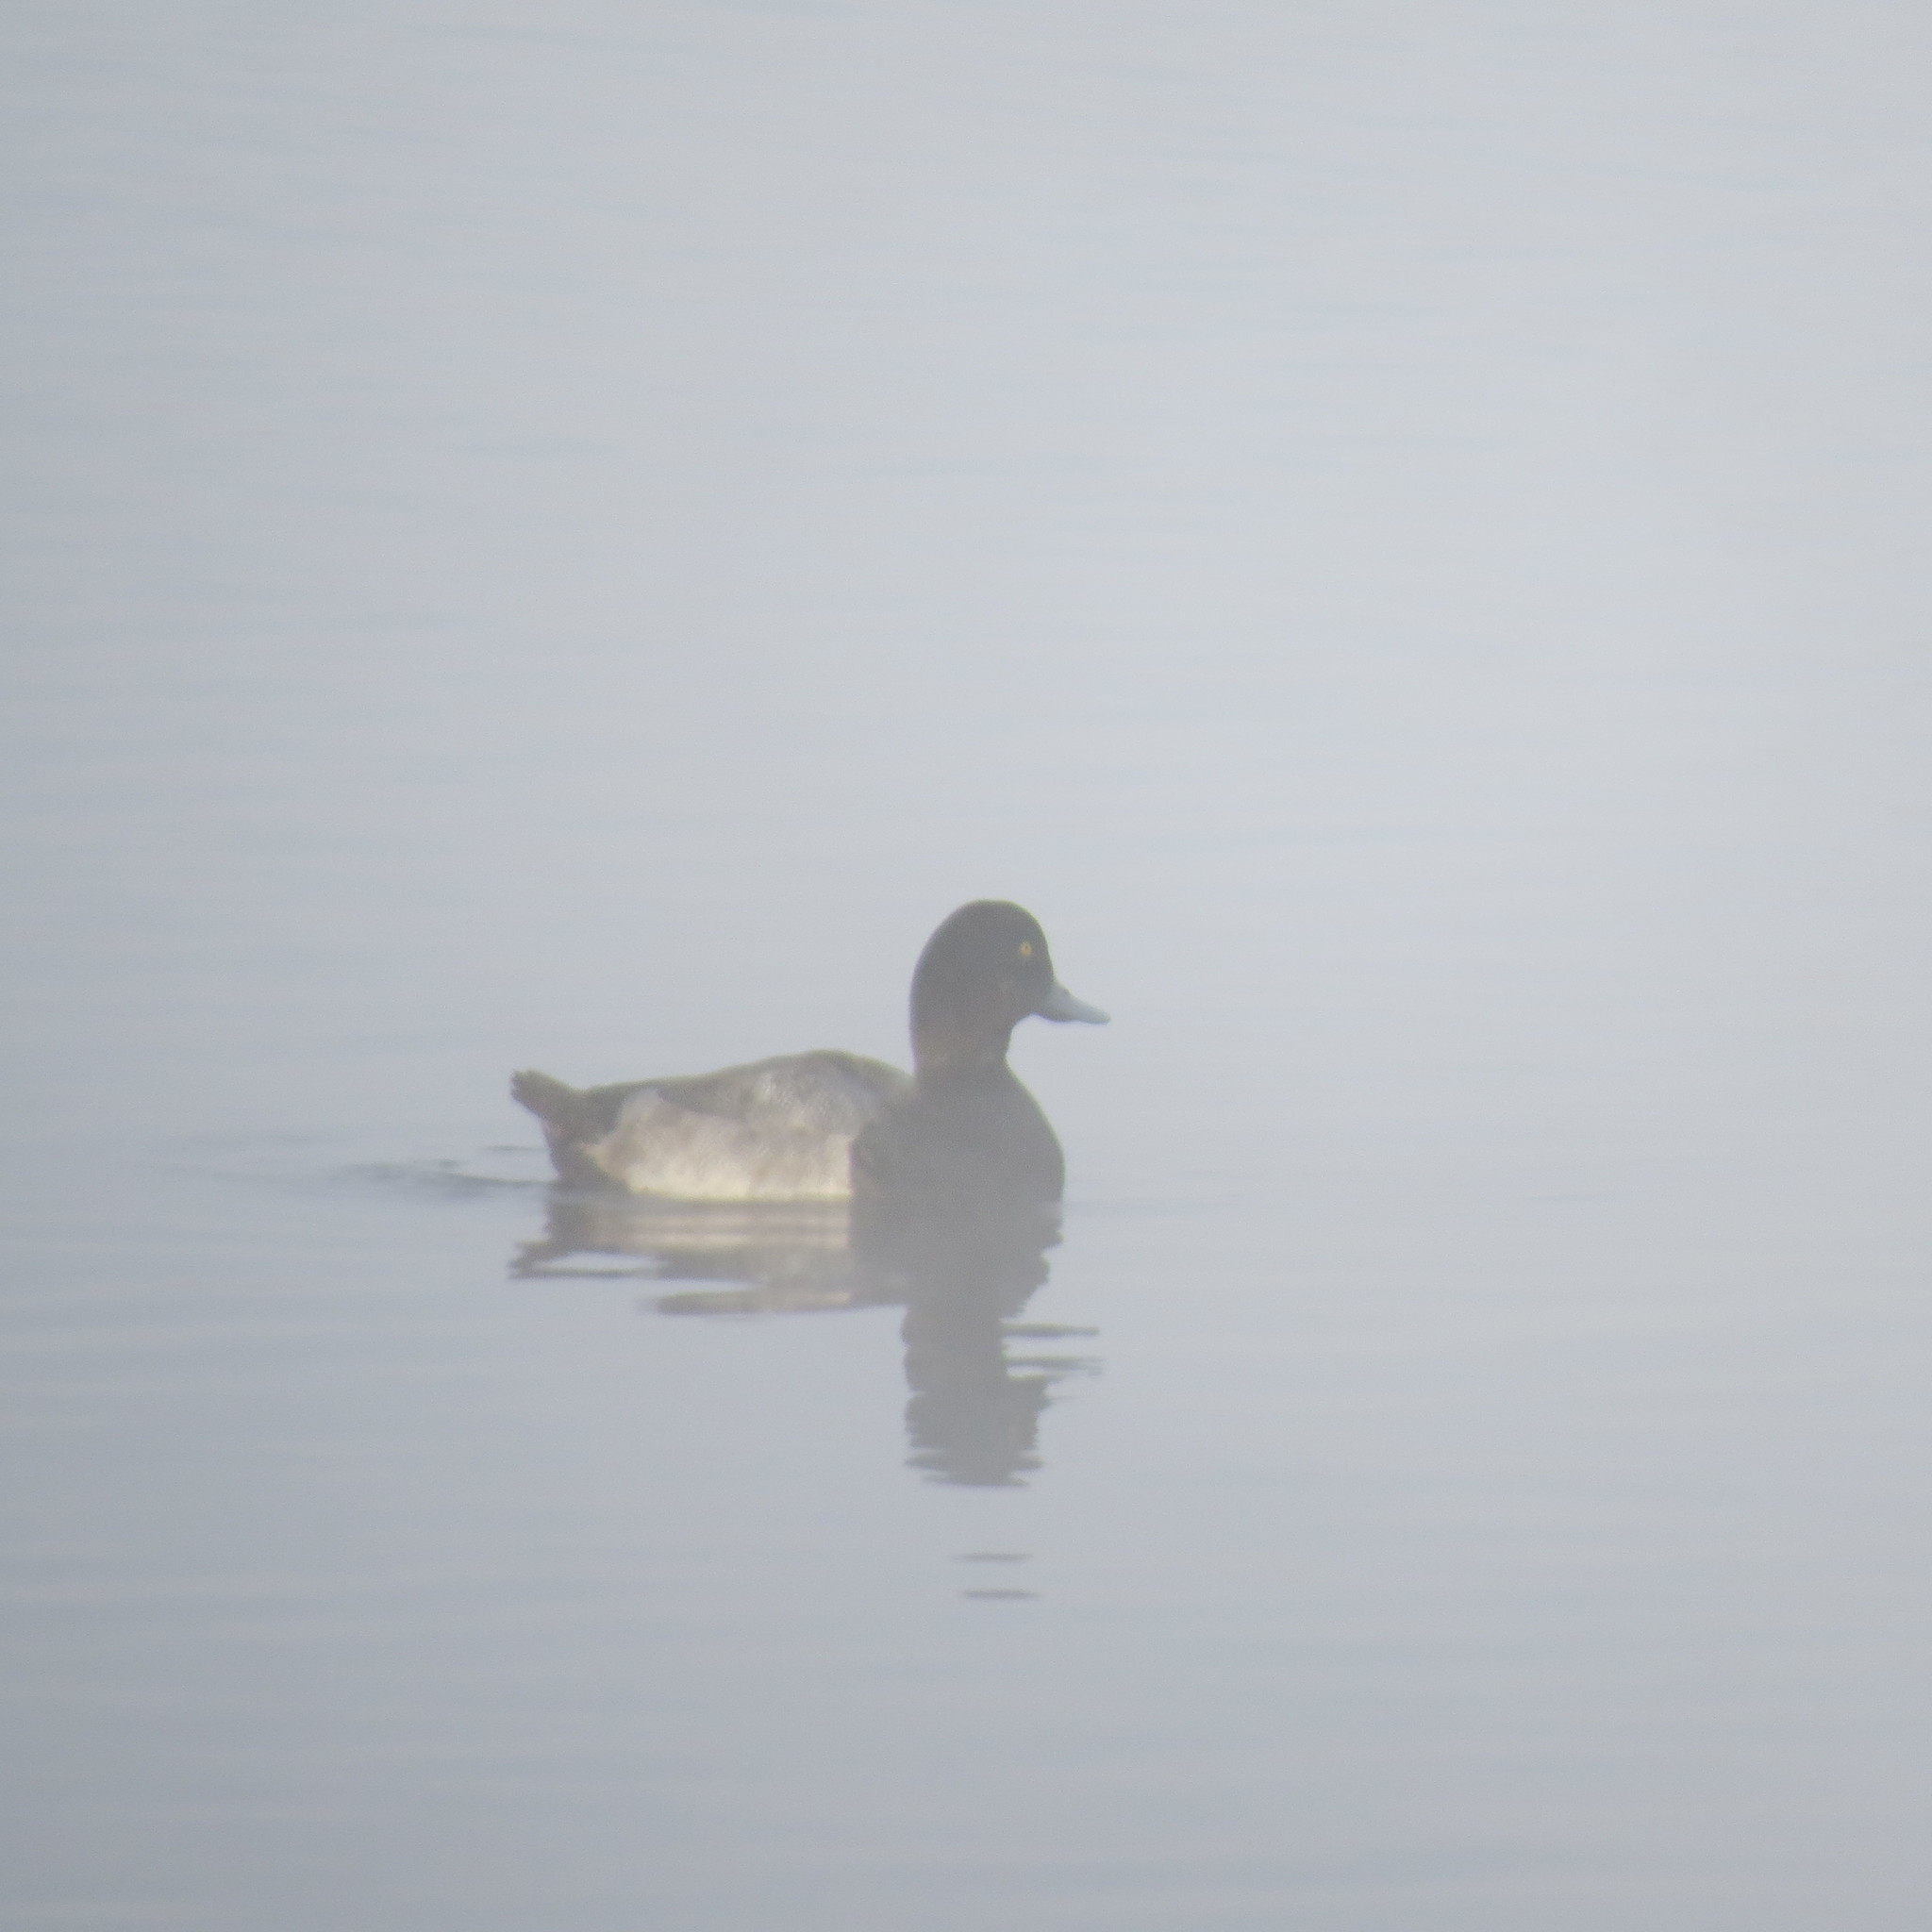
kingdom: Animalia
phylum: Chordata
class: Aves
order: Anseriformes
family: Anatidae
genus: Aythya
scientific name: Aythya marila
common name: Greater scaup
